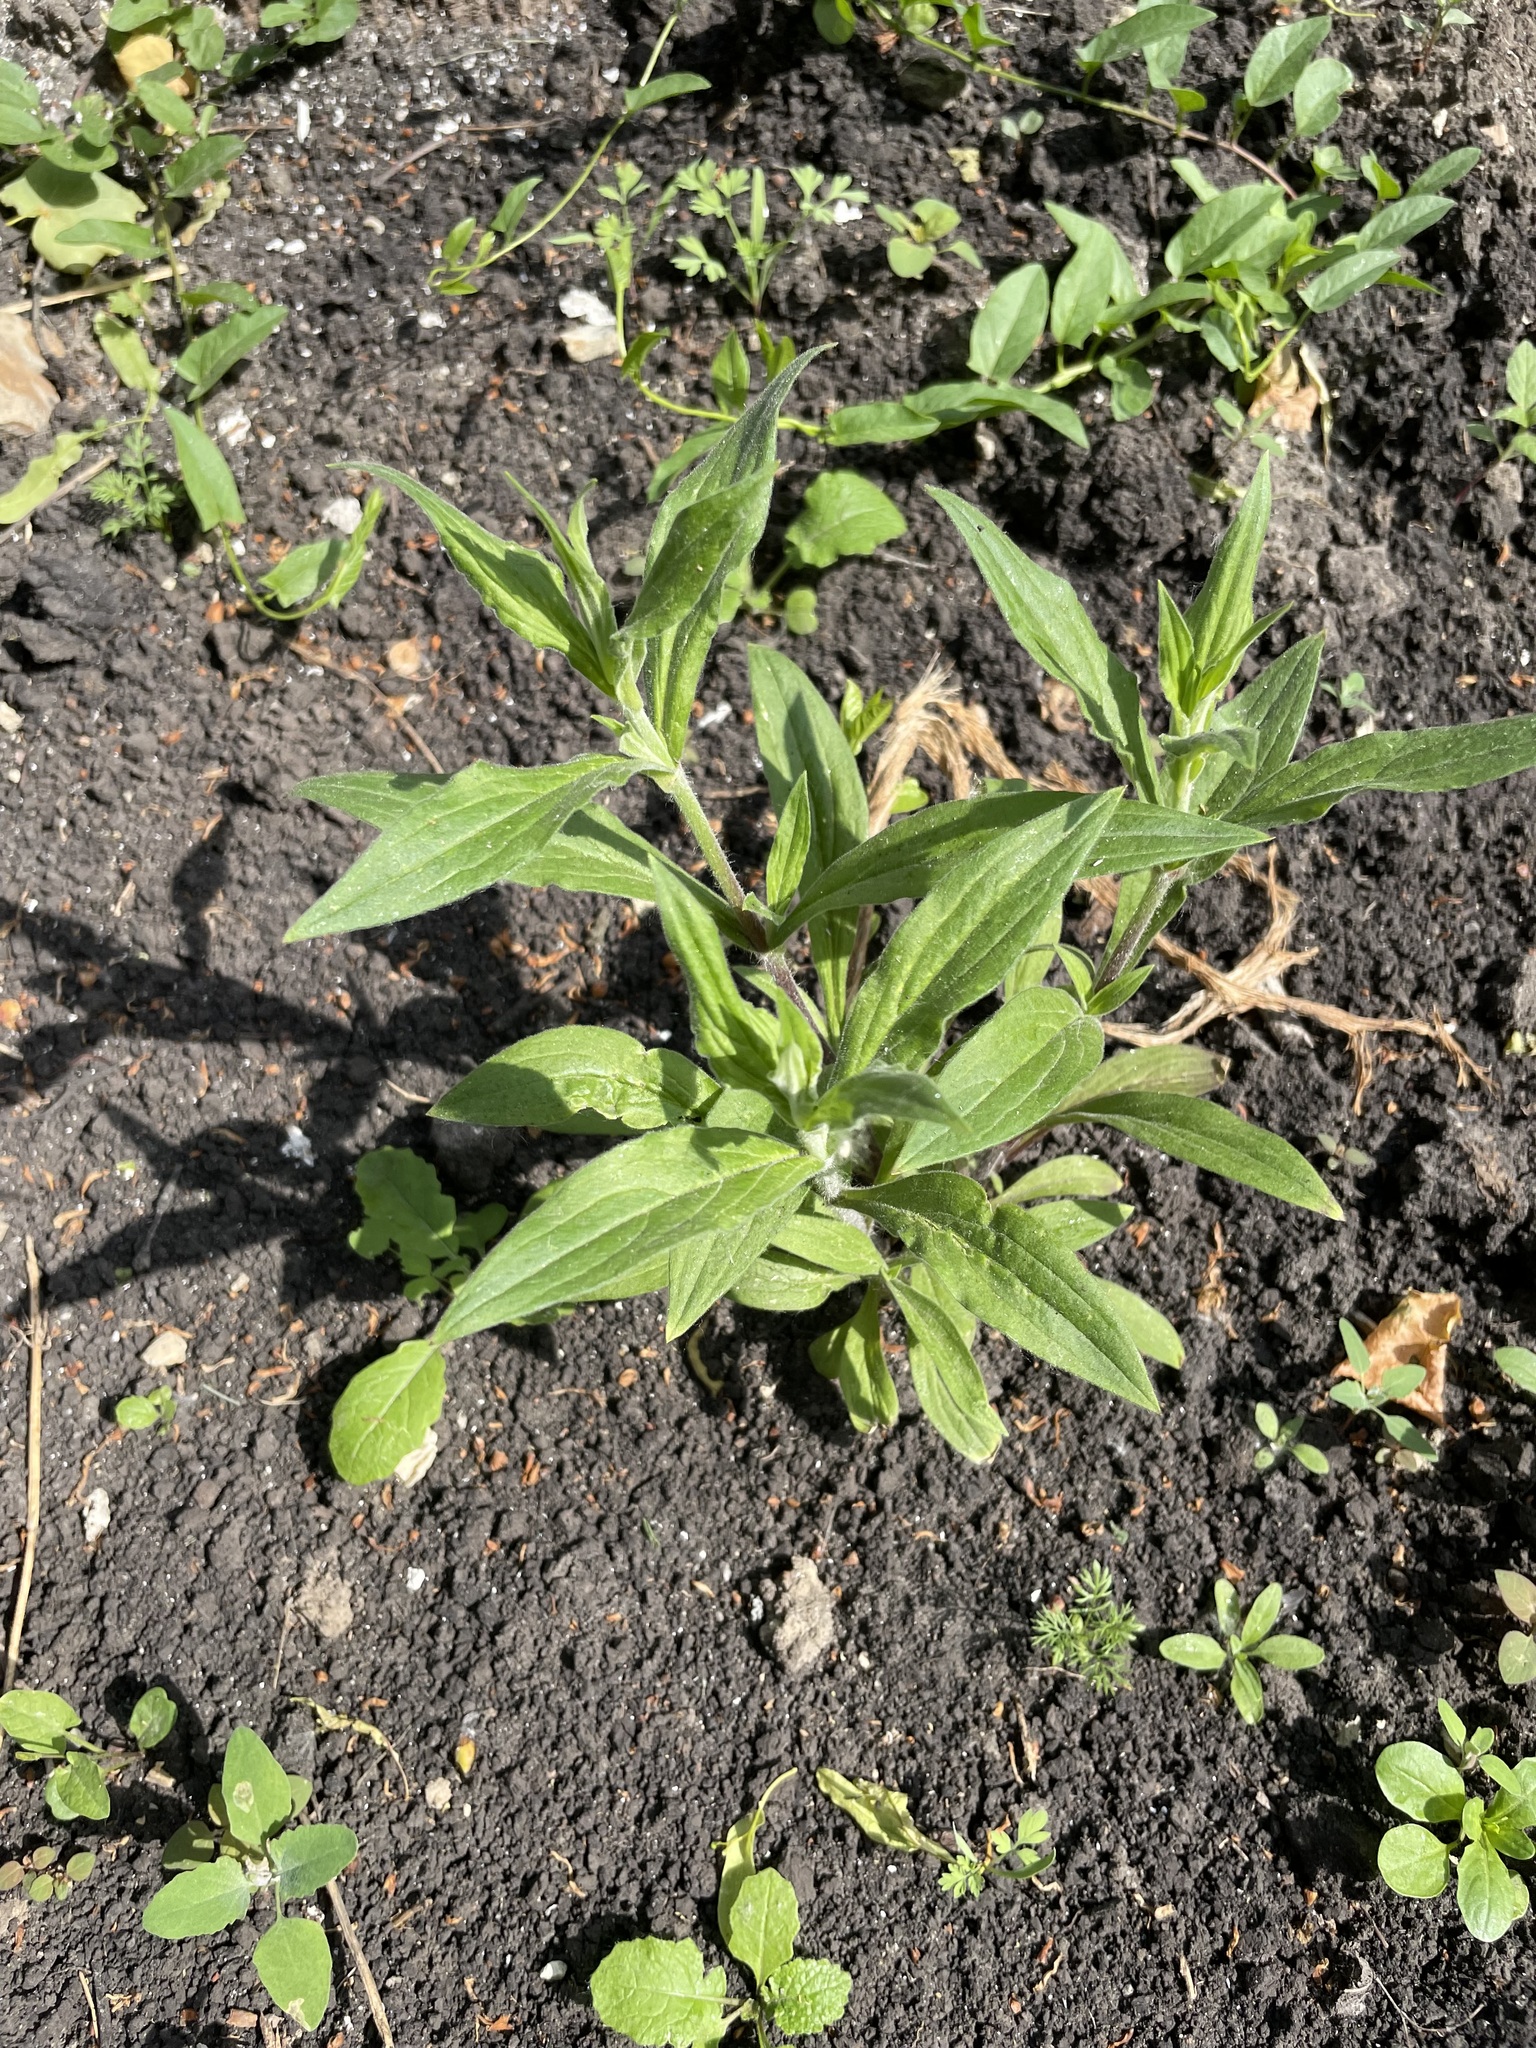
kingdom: Plantae
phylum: Tracheophyta
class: Magnoliopsida
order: Caryophyllales
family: Caryophyllaceae
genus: Silene
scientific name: Silene latifolia
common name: White campion
